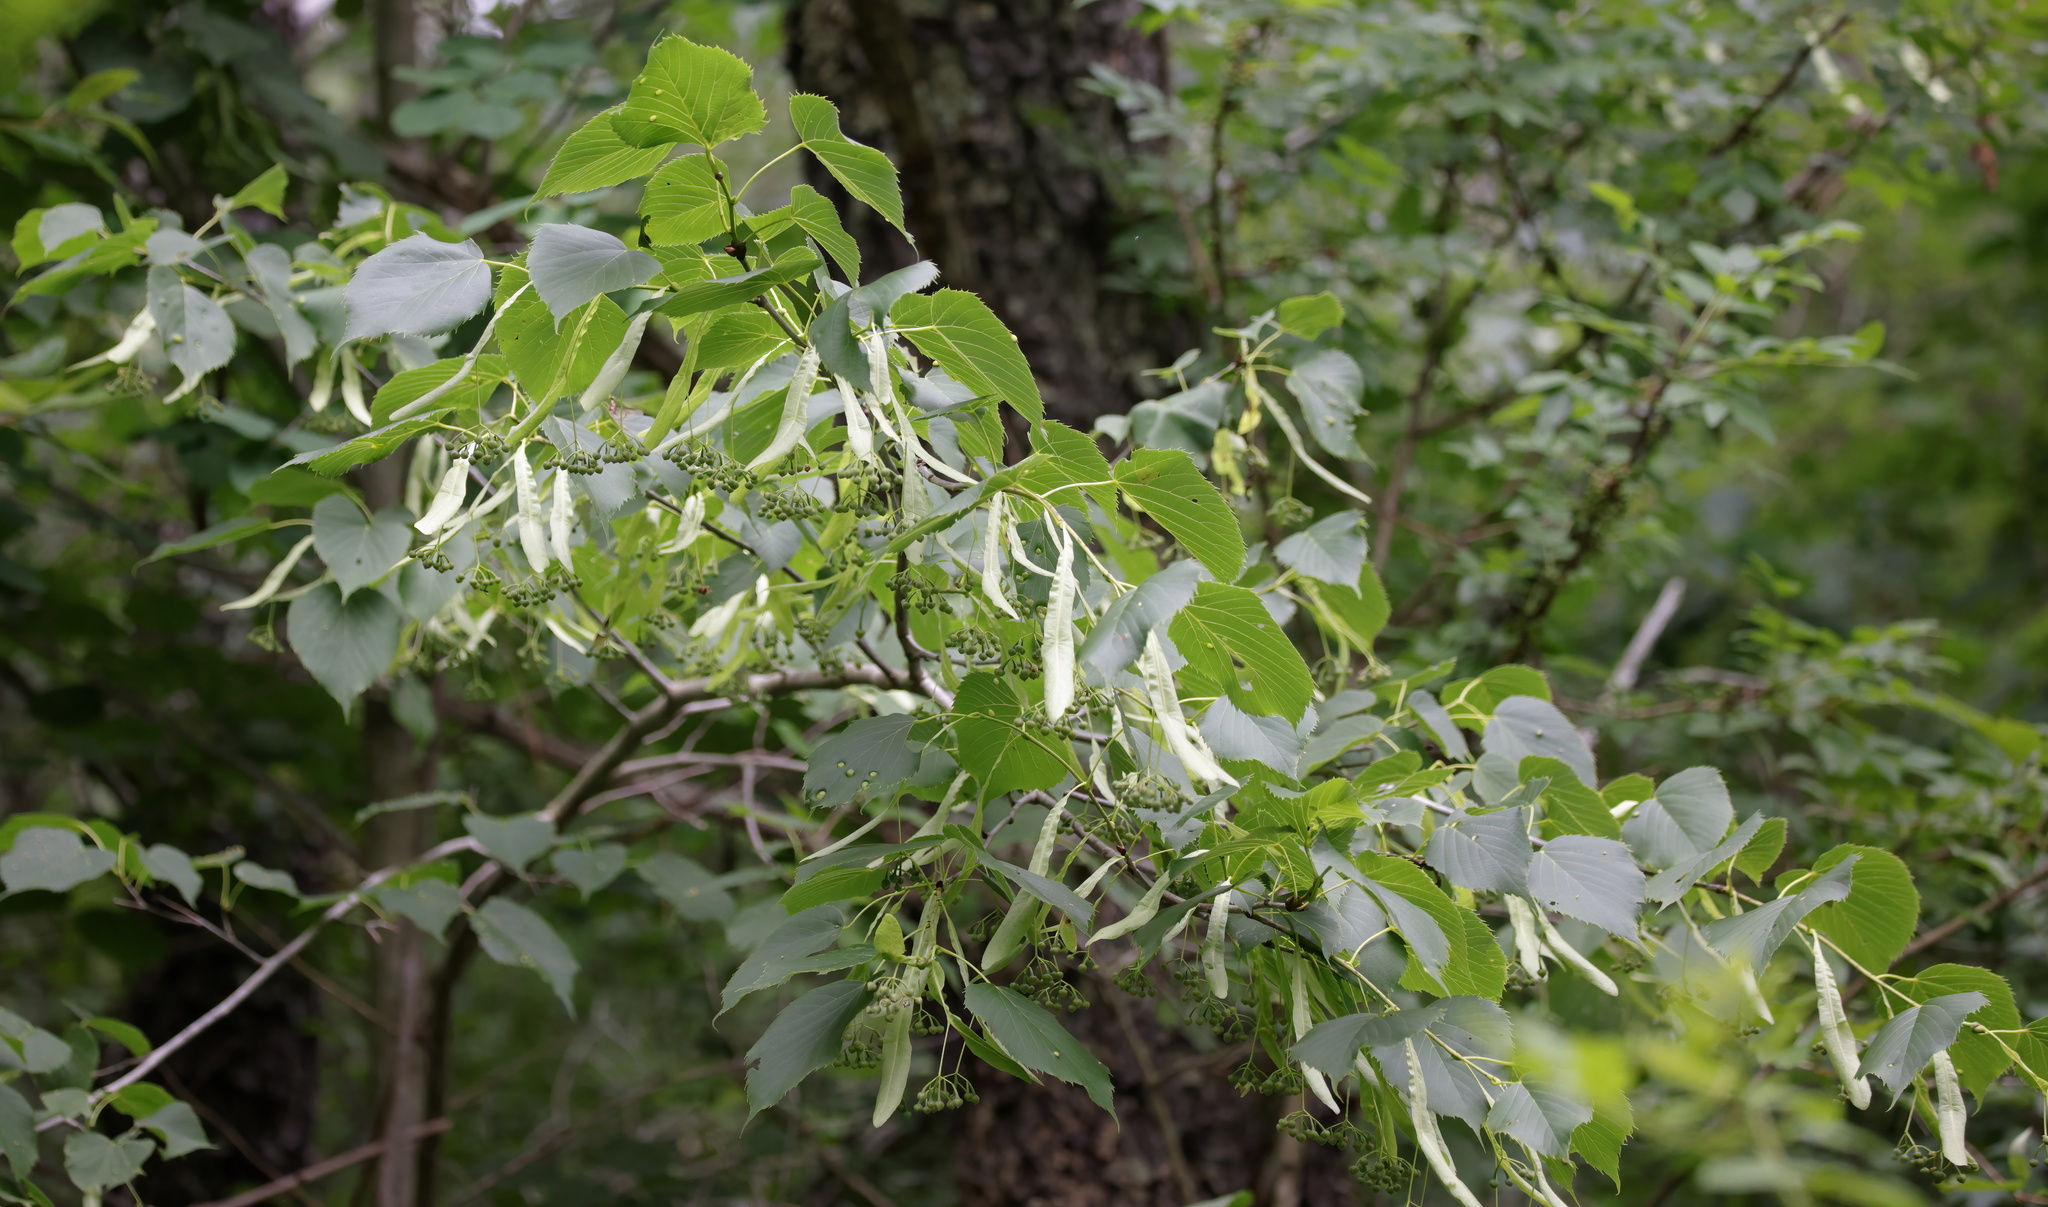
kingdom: Plantae
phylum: Tracheophyta
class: Magnoliopsida
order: Malvales
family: Malvaceae
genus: Tilia
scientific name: Tilia americana
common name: Basswood
